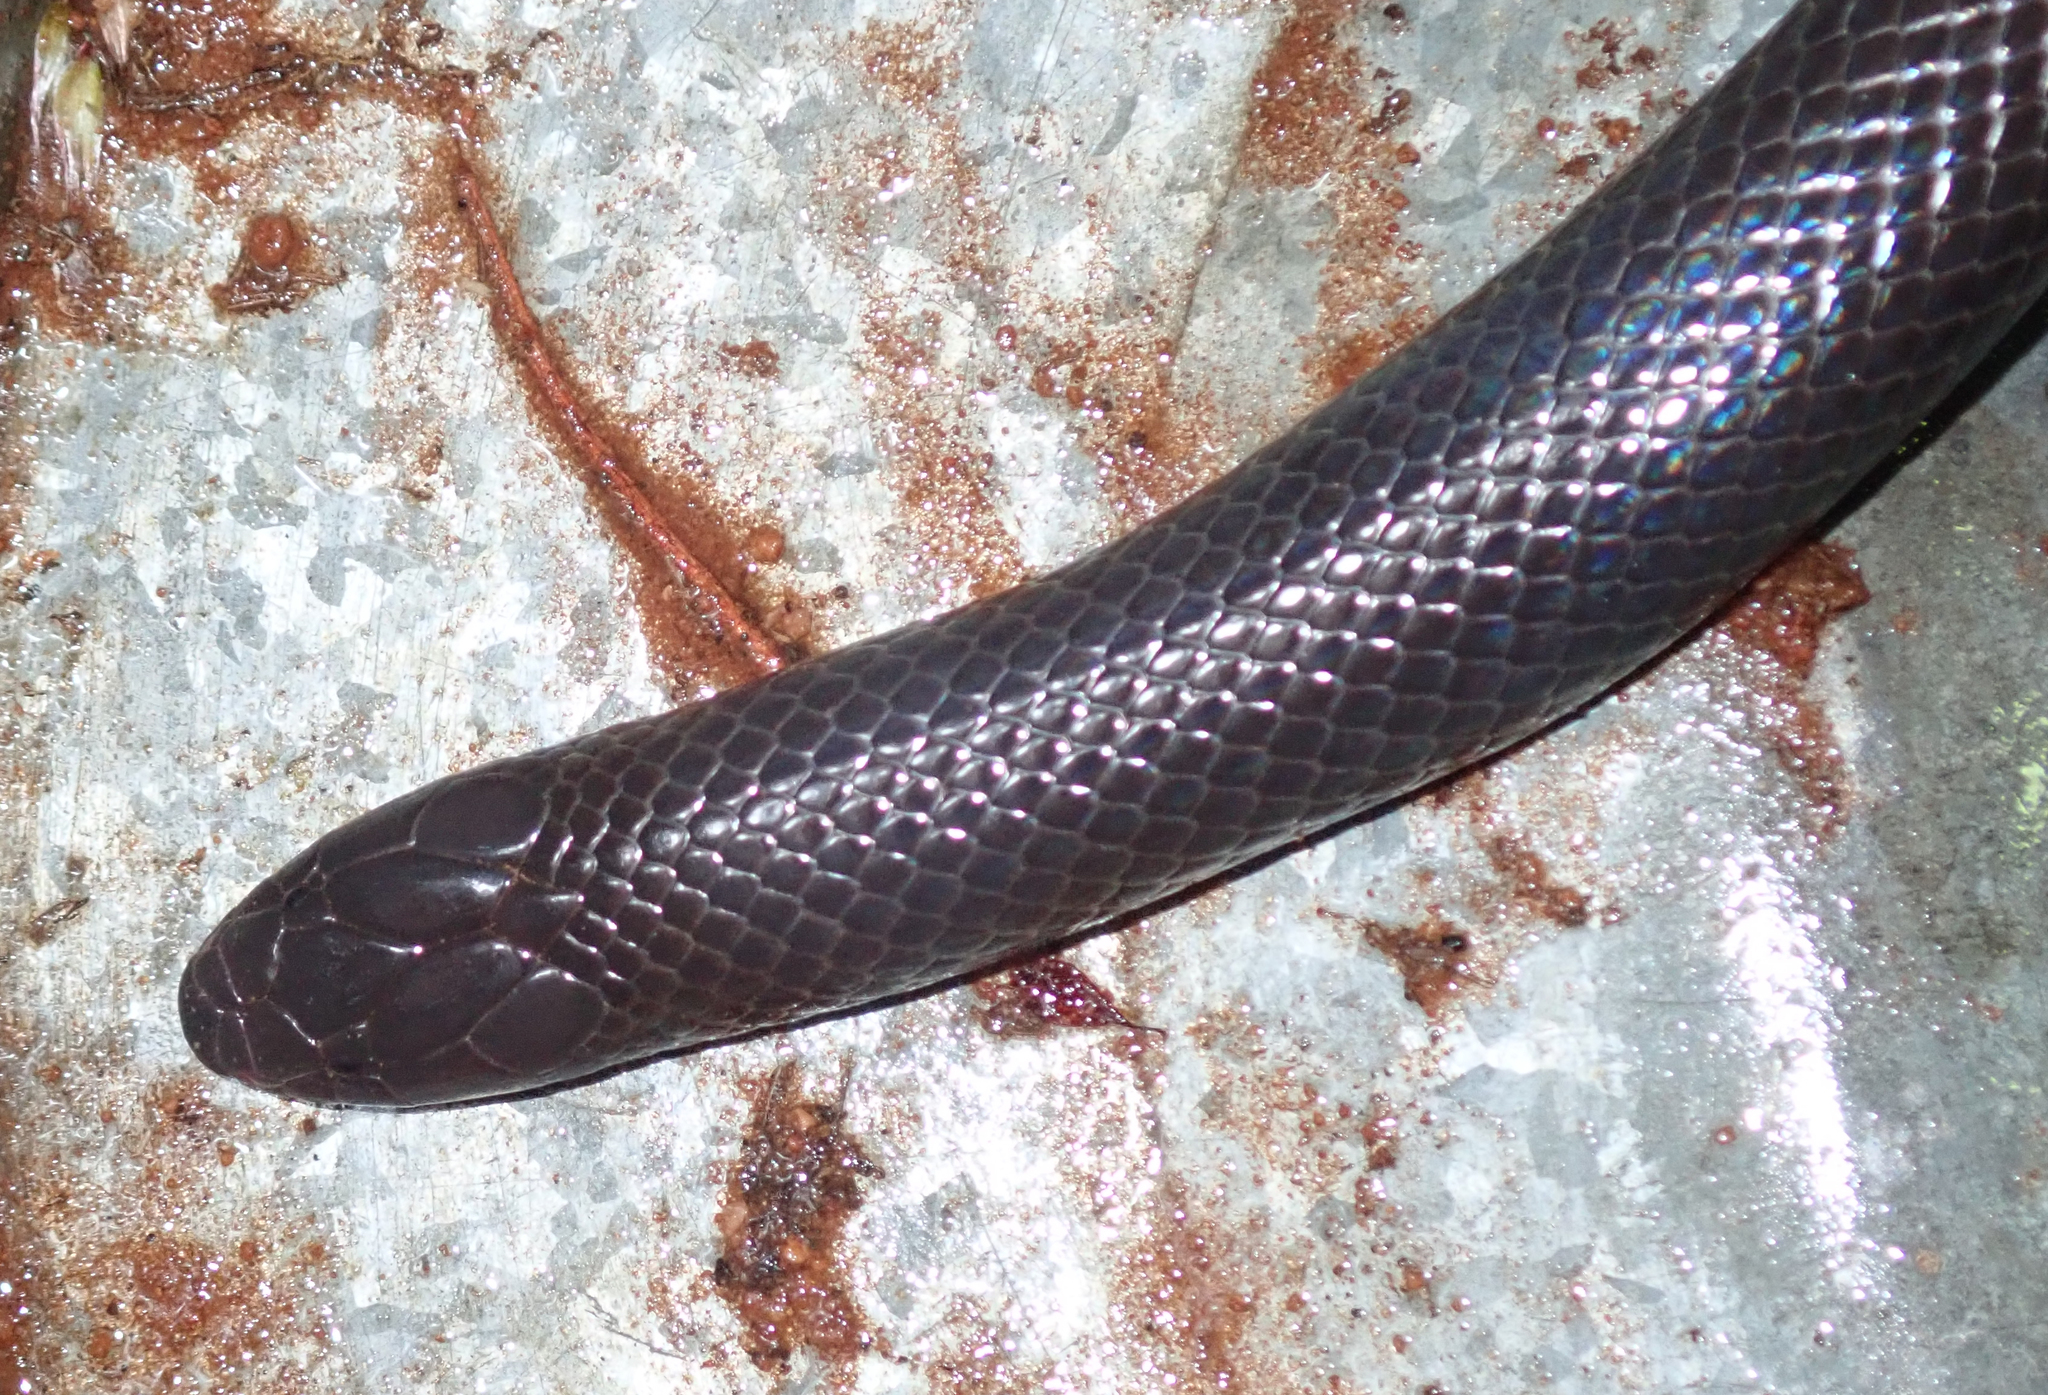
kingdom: Animalia
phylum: Chordata
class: Squamata
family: Atractaspididae
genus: Amblyodipsas
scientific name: Amblyodipsas polylepis
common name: Common purple-glossed snake
